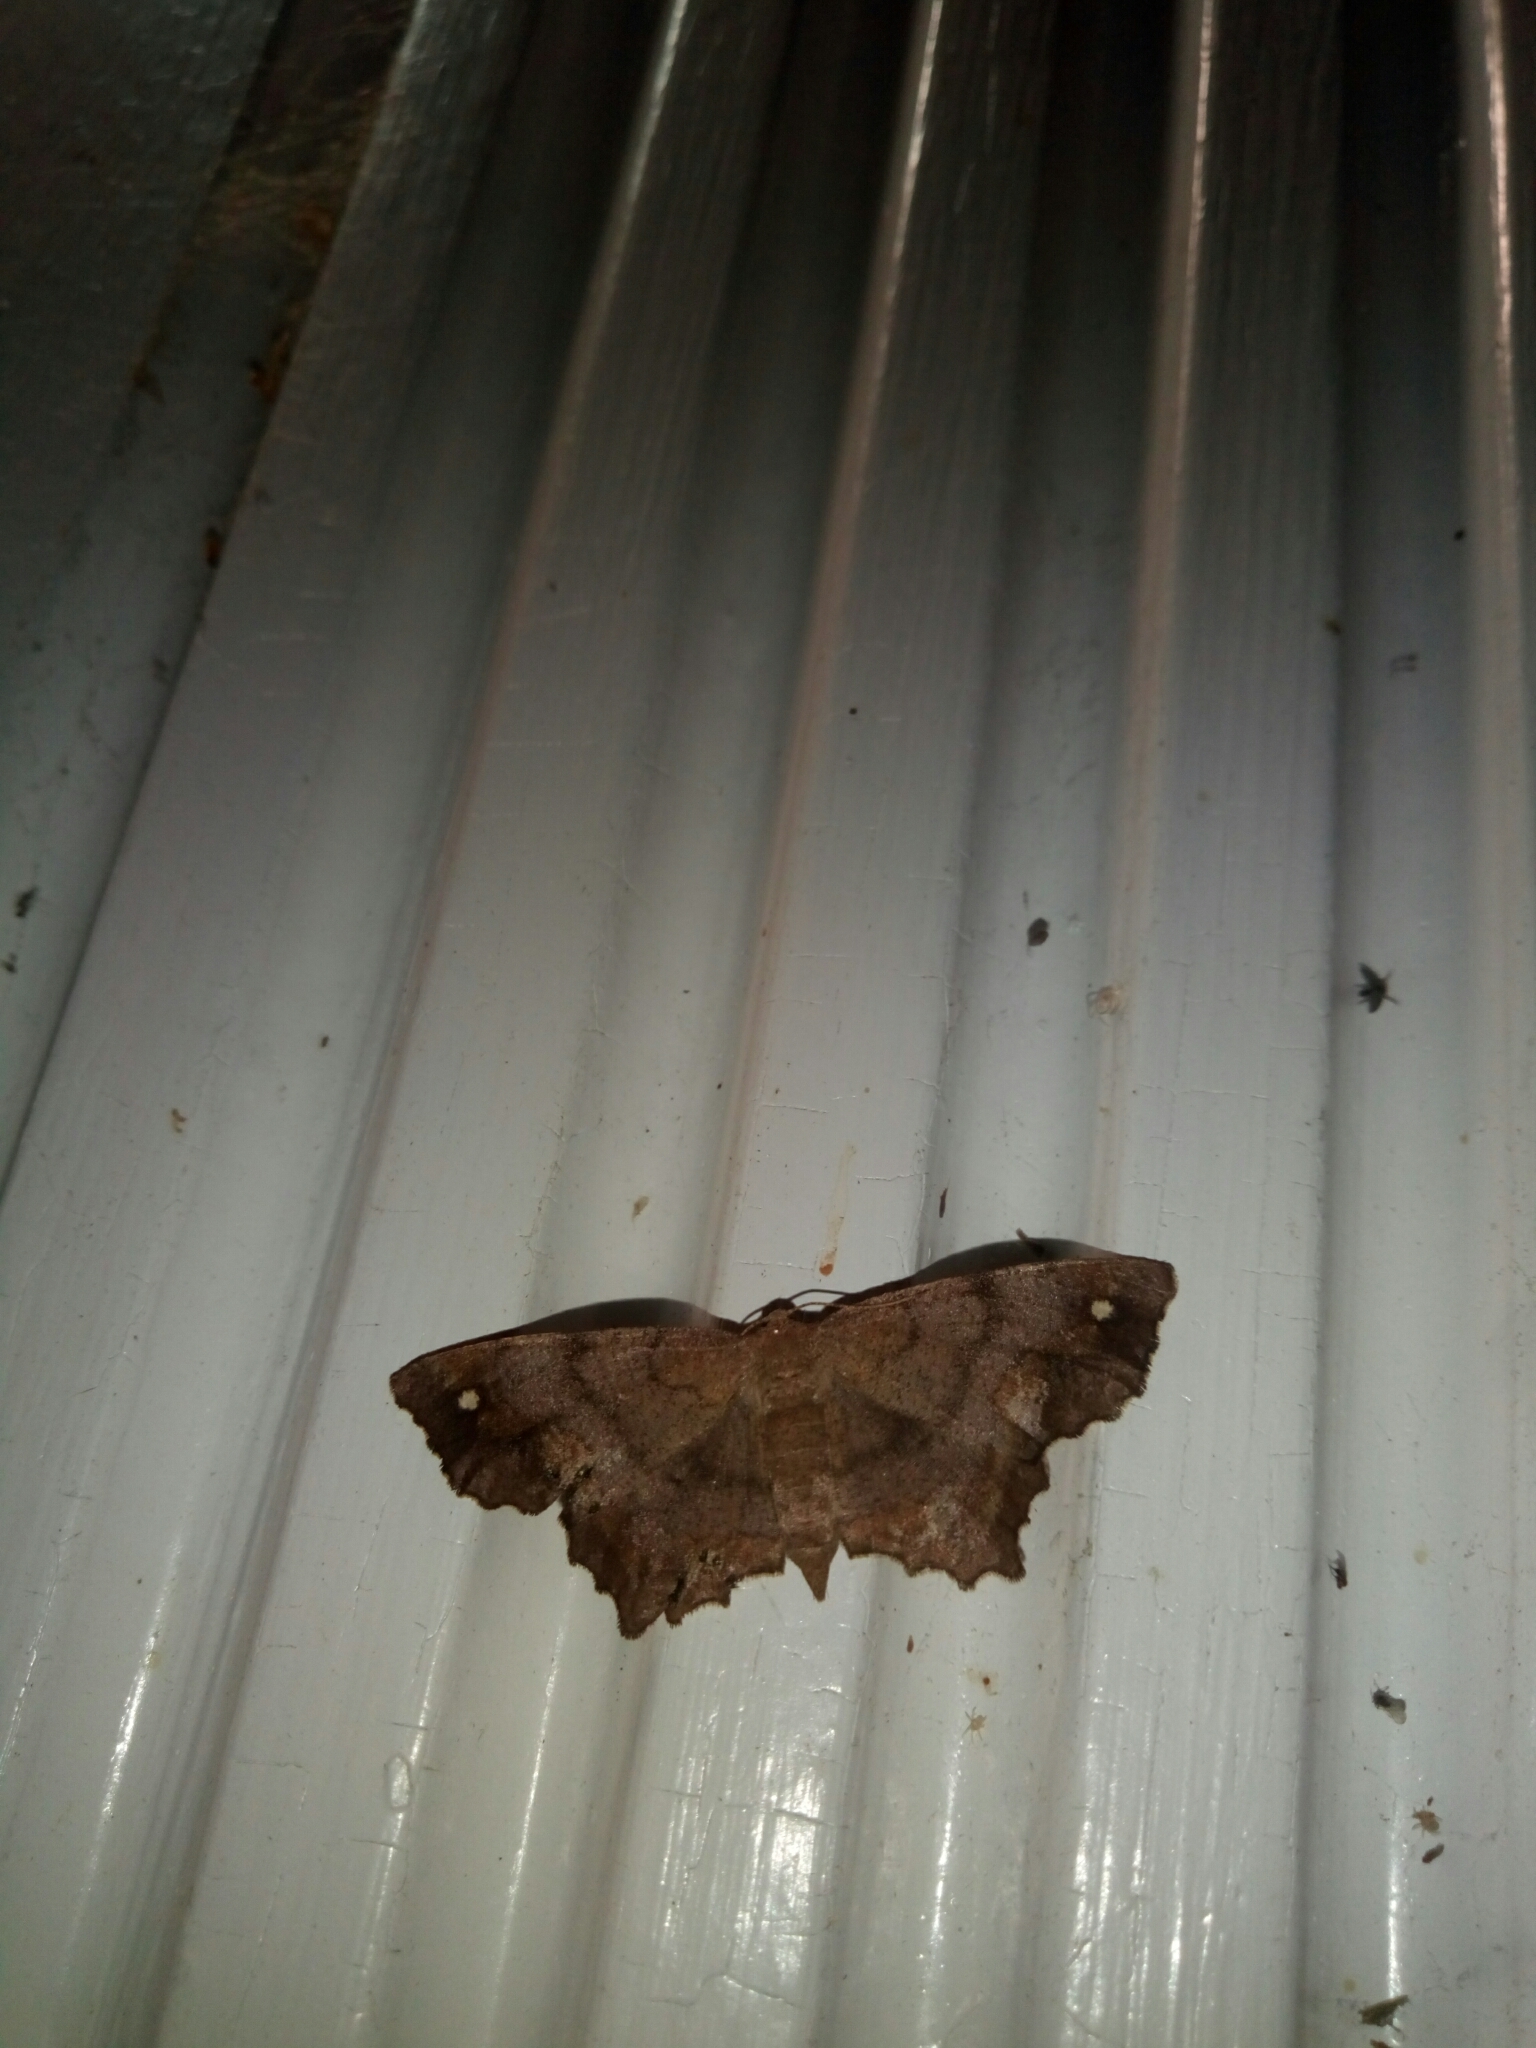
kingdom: Animalia
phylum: Arthropoda
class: Insecta
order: Lepidoptera
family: Geometridae
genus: Hypagyrtis
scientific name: Hypagyrtis unipunctata
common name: One-spotted variant
